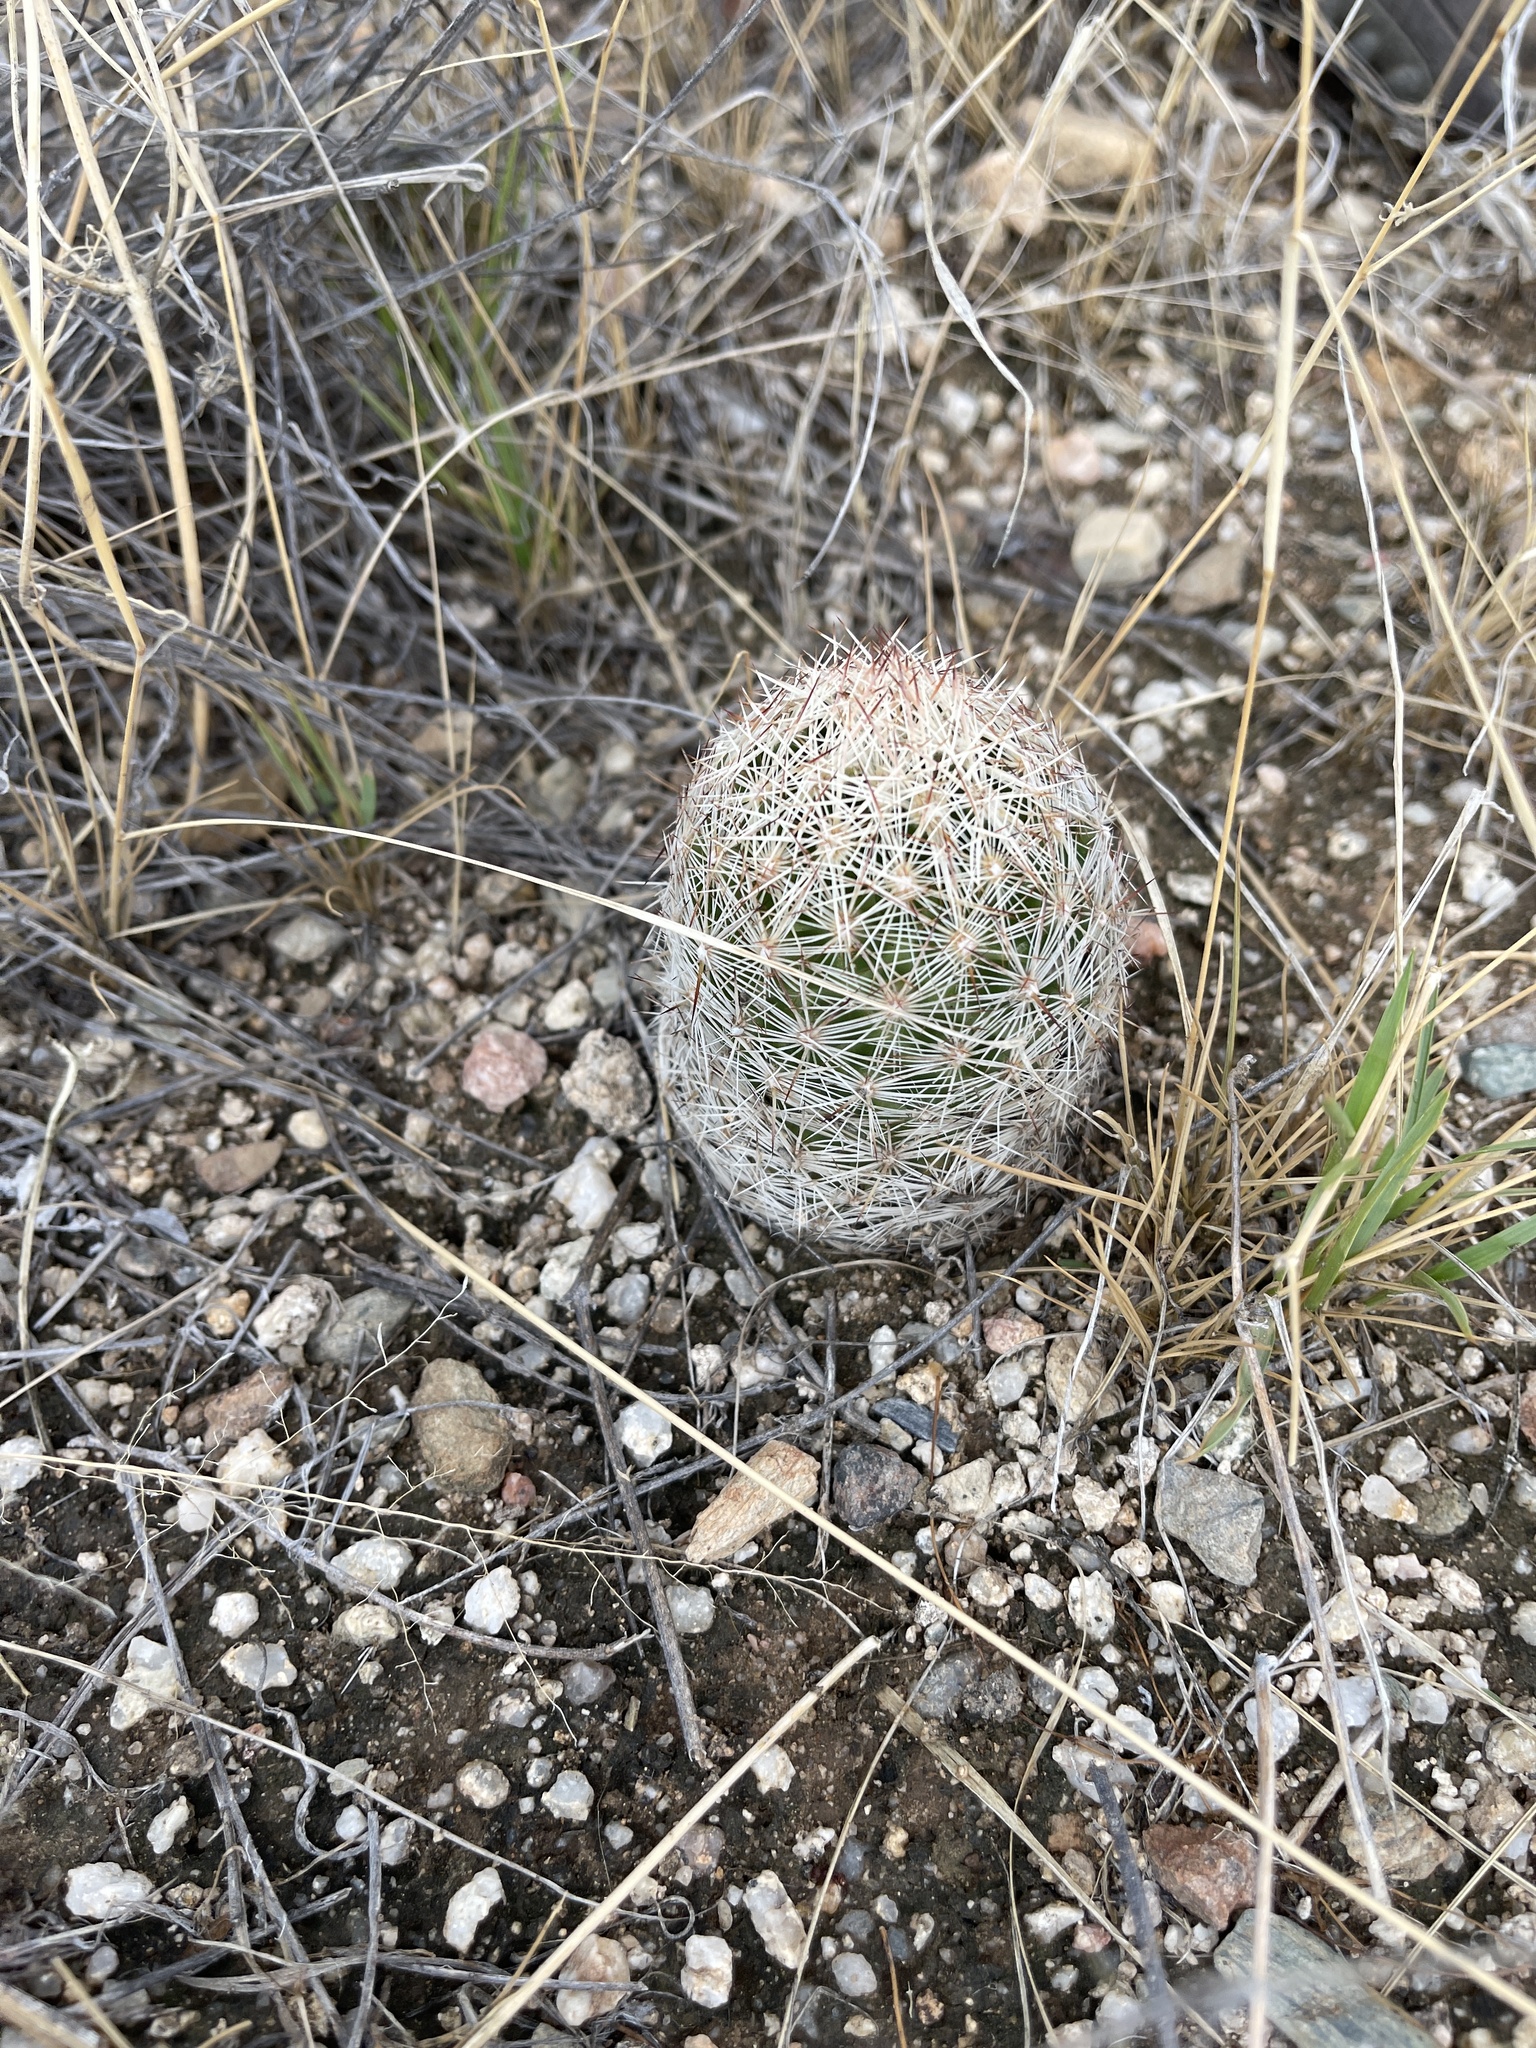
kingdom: Plantae
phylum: Tracheophyta
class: Magnoliopsida
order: Caryophyllales
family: Cactaceae
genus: Pelecyphora
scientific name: Pelecyphora vivipara
